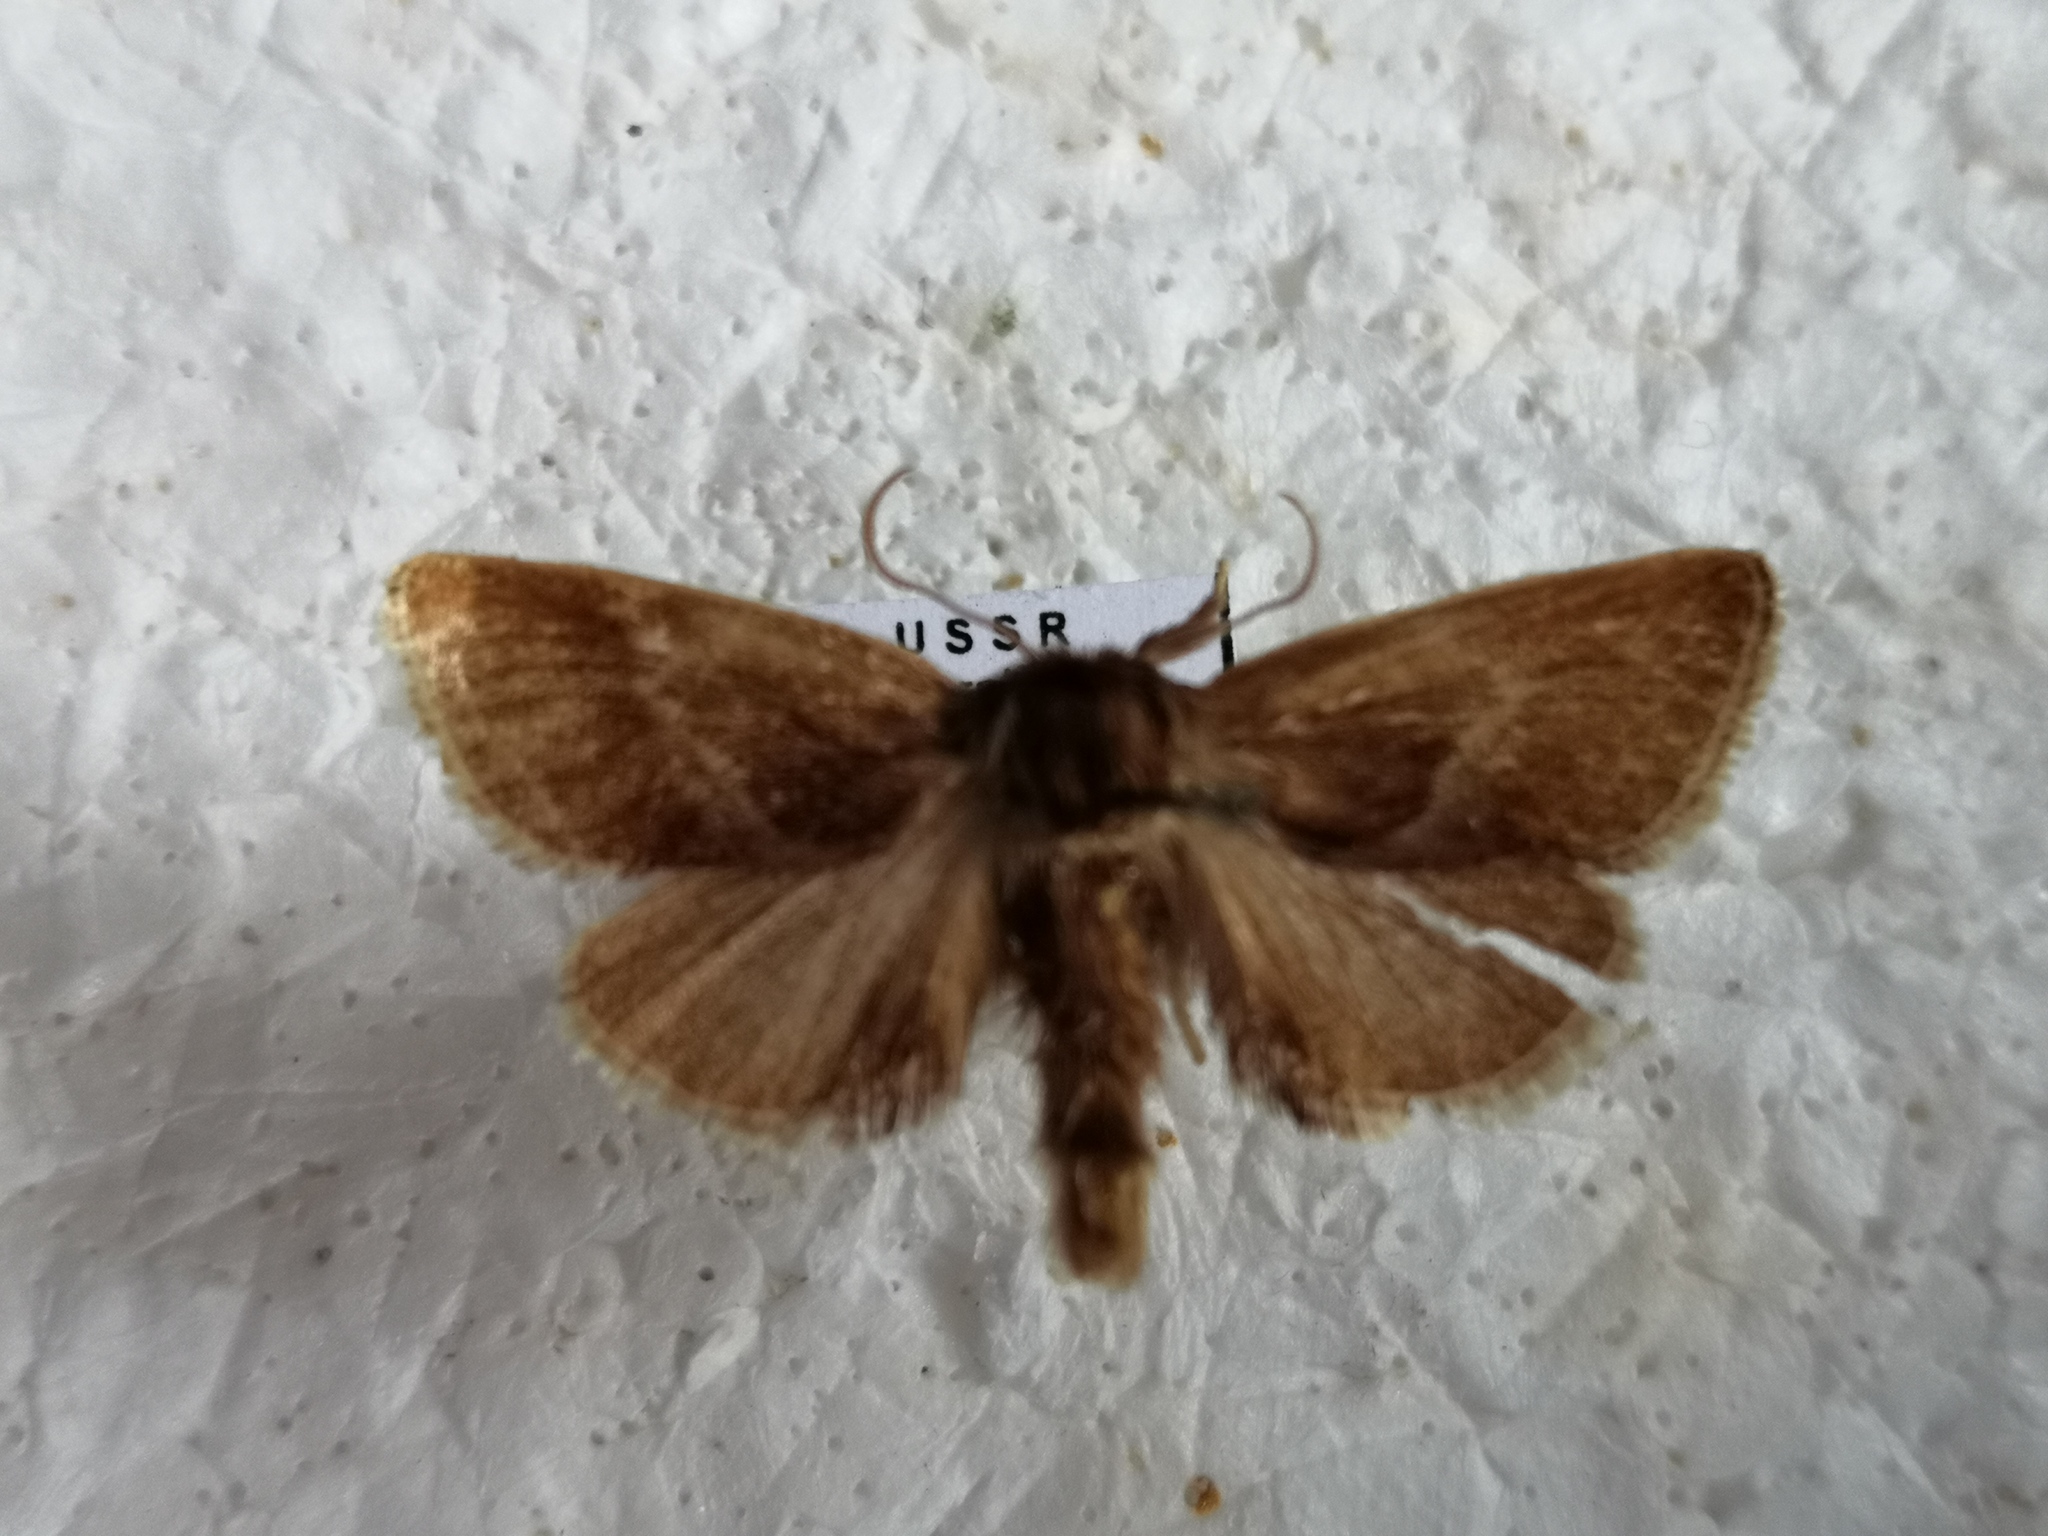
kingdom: Animalia
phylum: Arthropoda
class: Insecta
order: Lepidoptera
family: Limacodidae
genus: Phrixolepia
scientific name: Phrixolepia sericea
